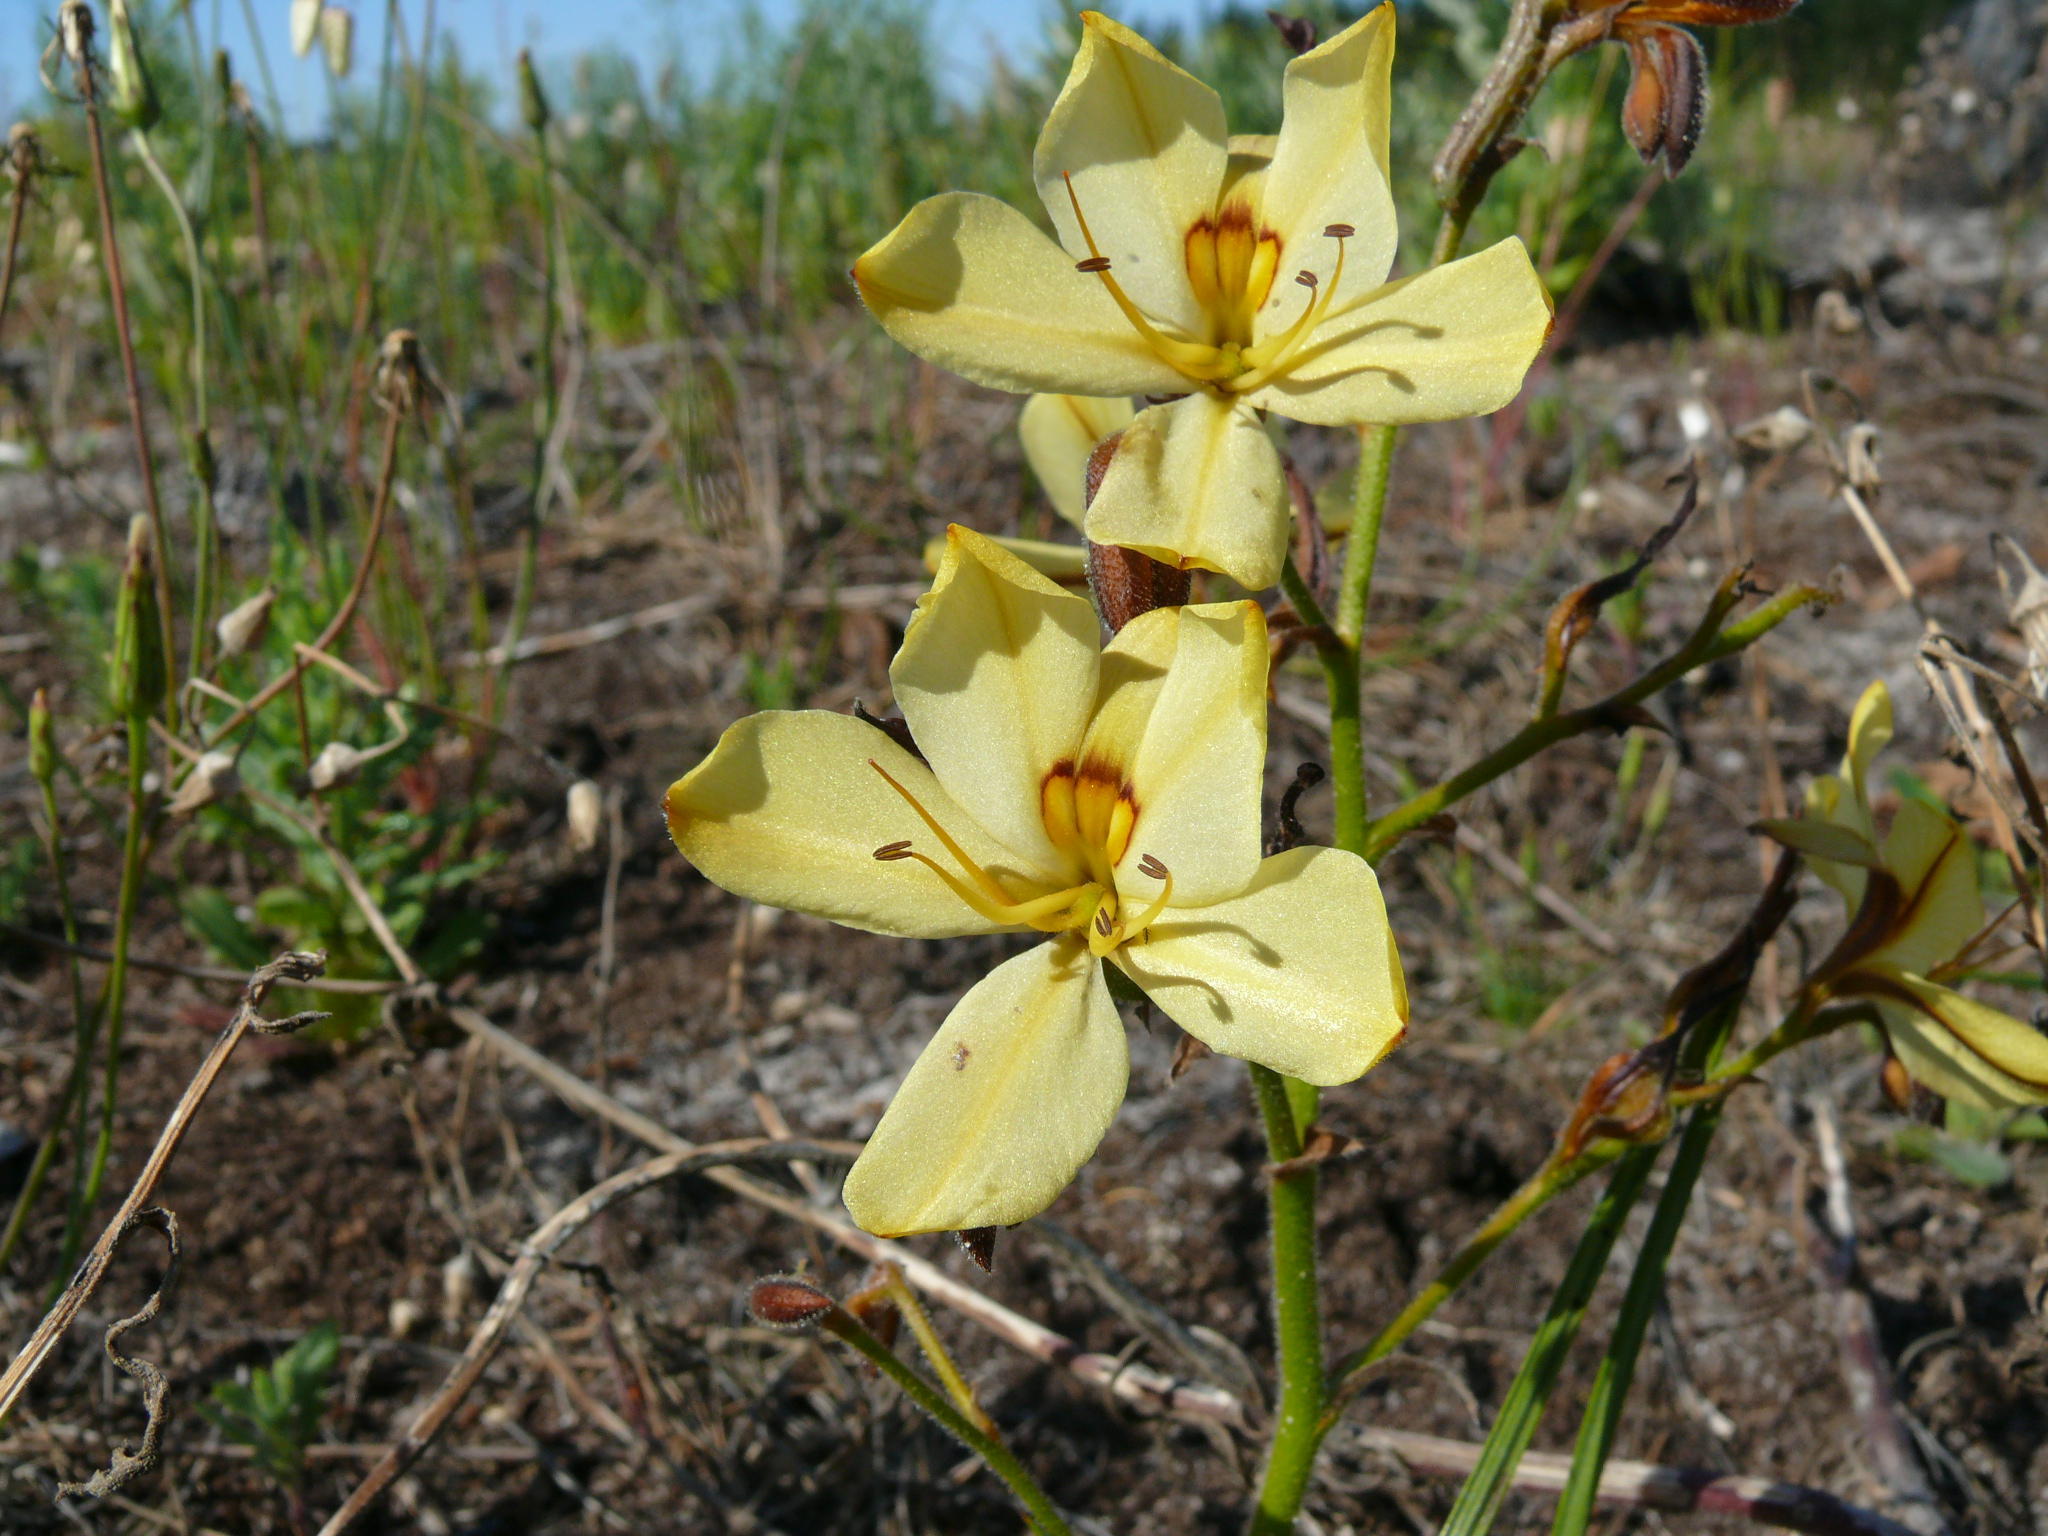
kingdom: Plantae
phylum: Tracheophyta
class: Liliopsida
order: Commelinales
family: Haemodoraceae
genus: Wachendorfia
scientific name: Wachendorfia paniculata
